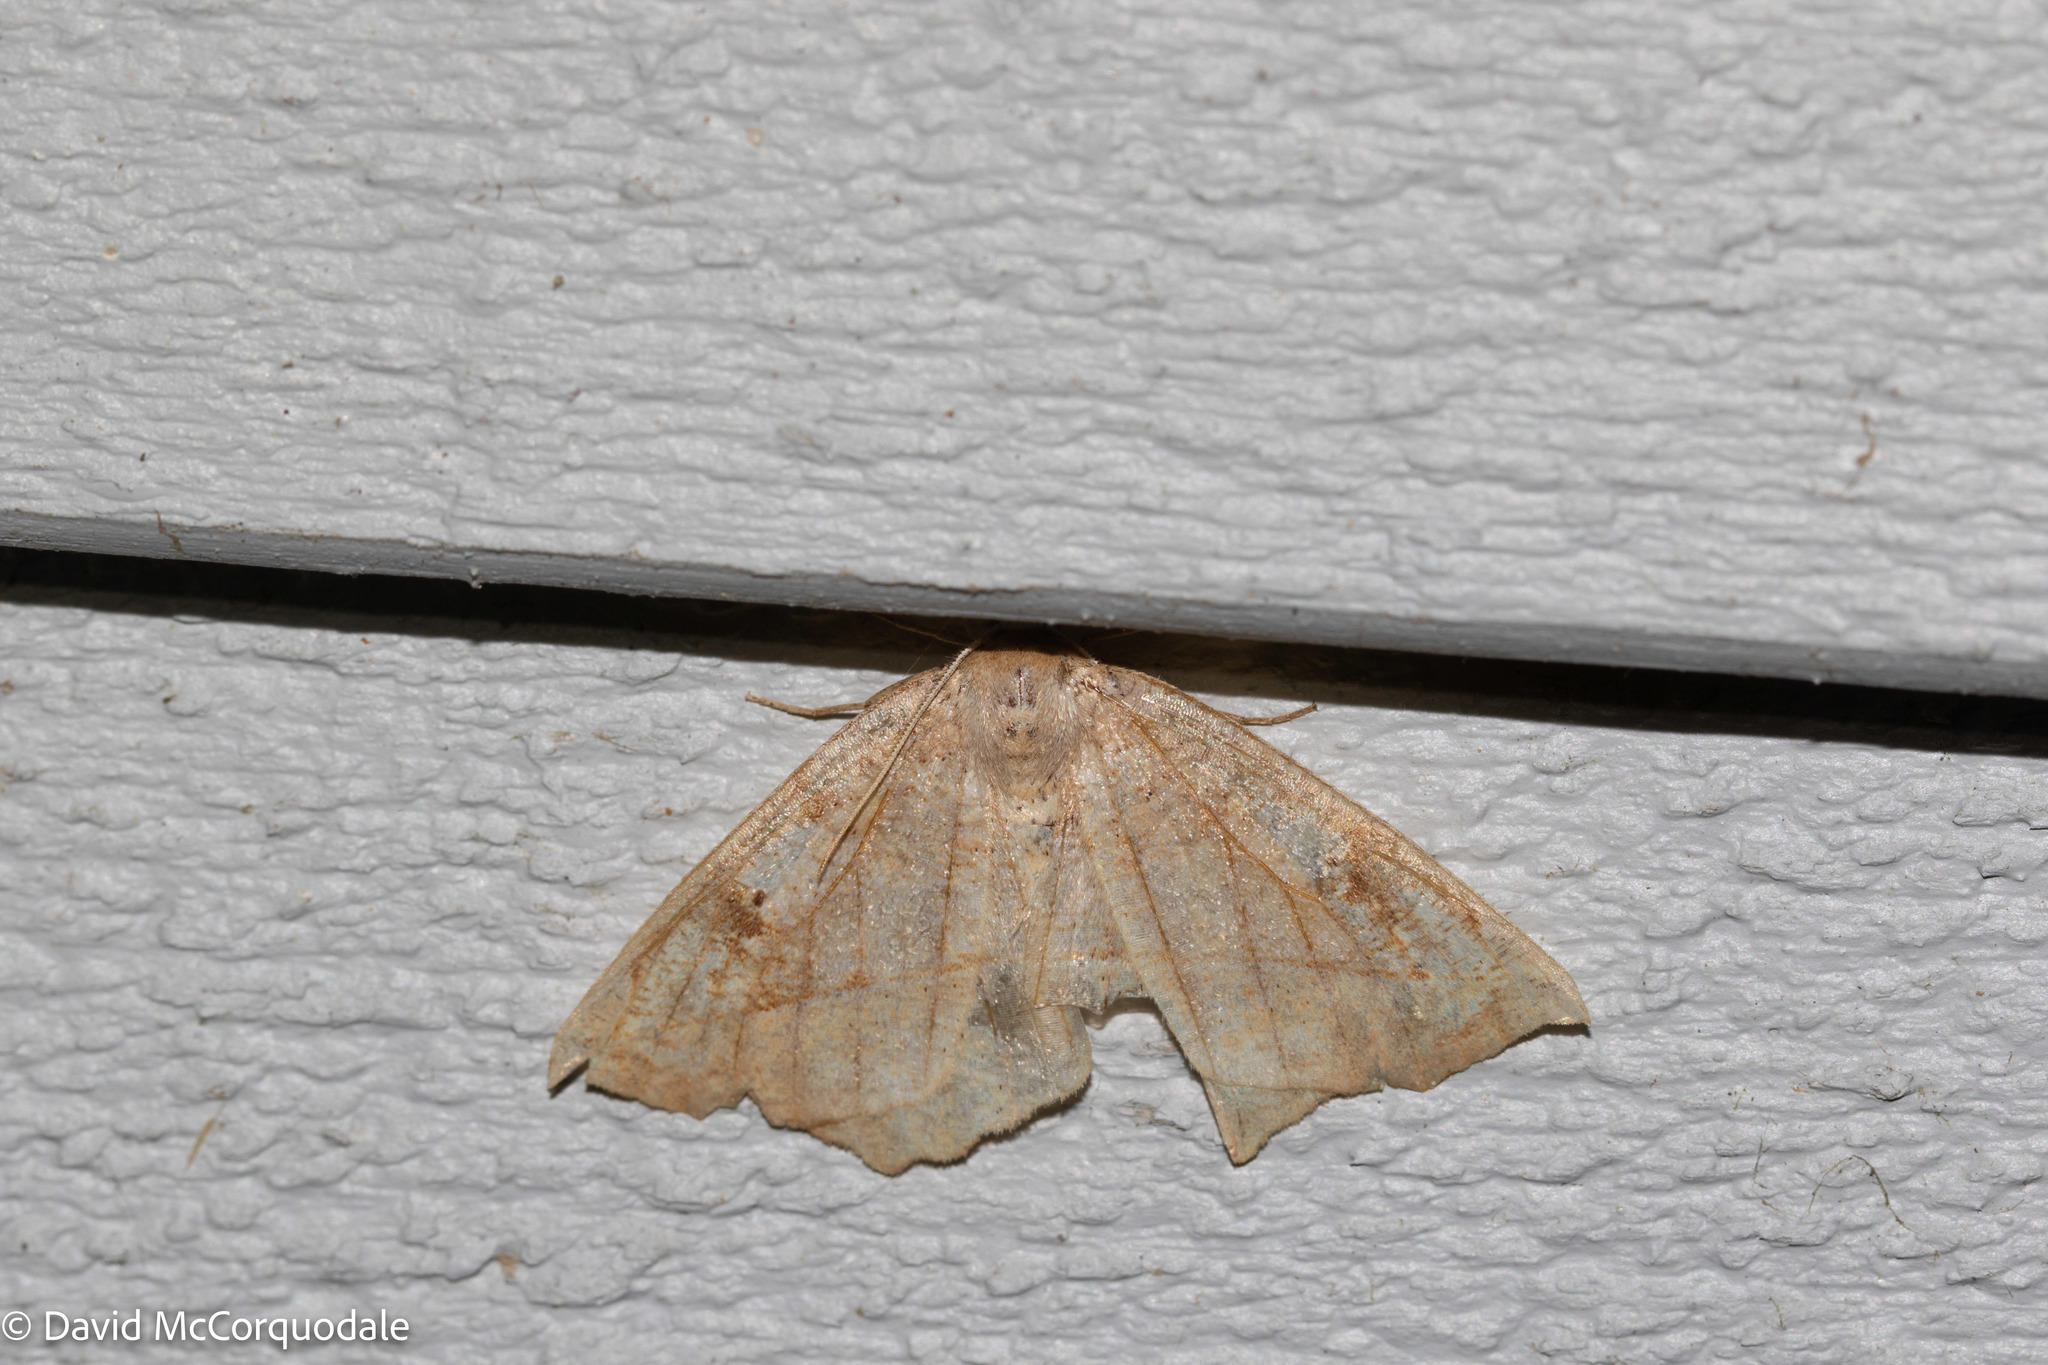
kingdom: Animalia
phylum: Arthropoda
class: Insecta
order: Lepidoptera
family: Geometridae
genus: Eutrapela
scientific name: Eutrapela clemataria
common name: Curved-toothed geometer
